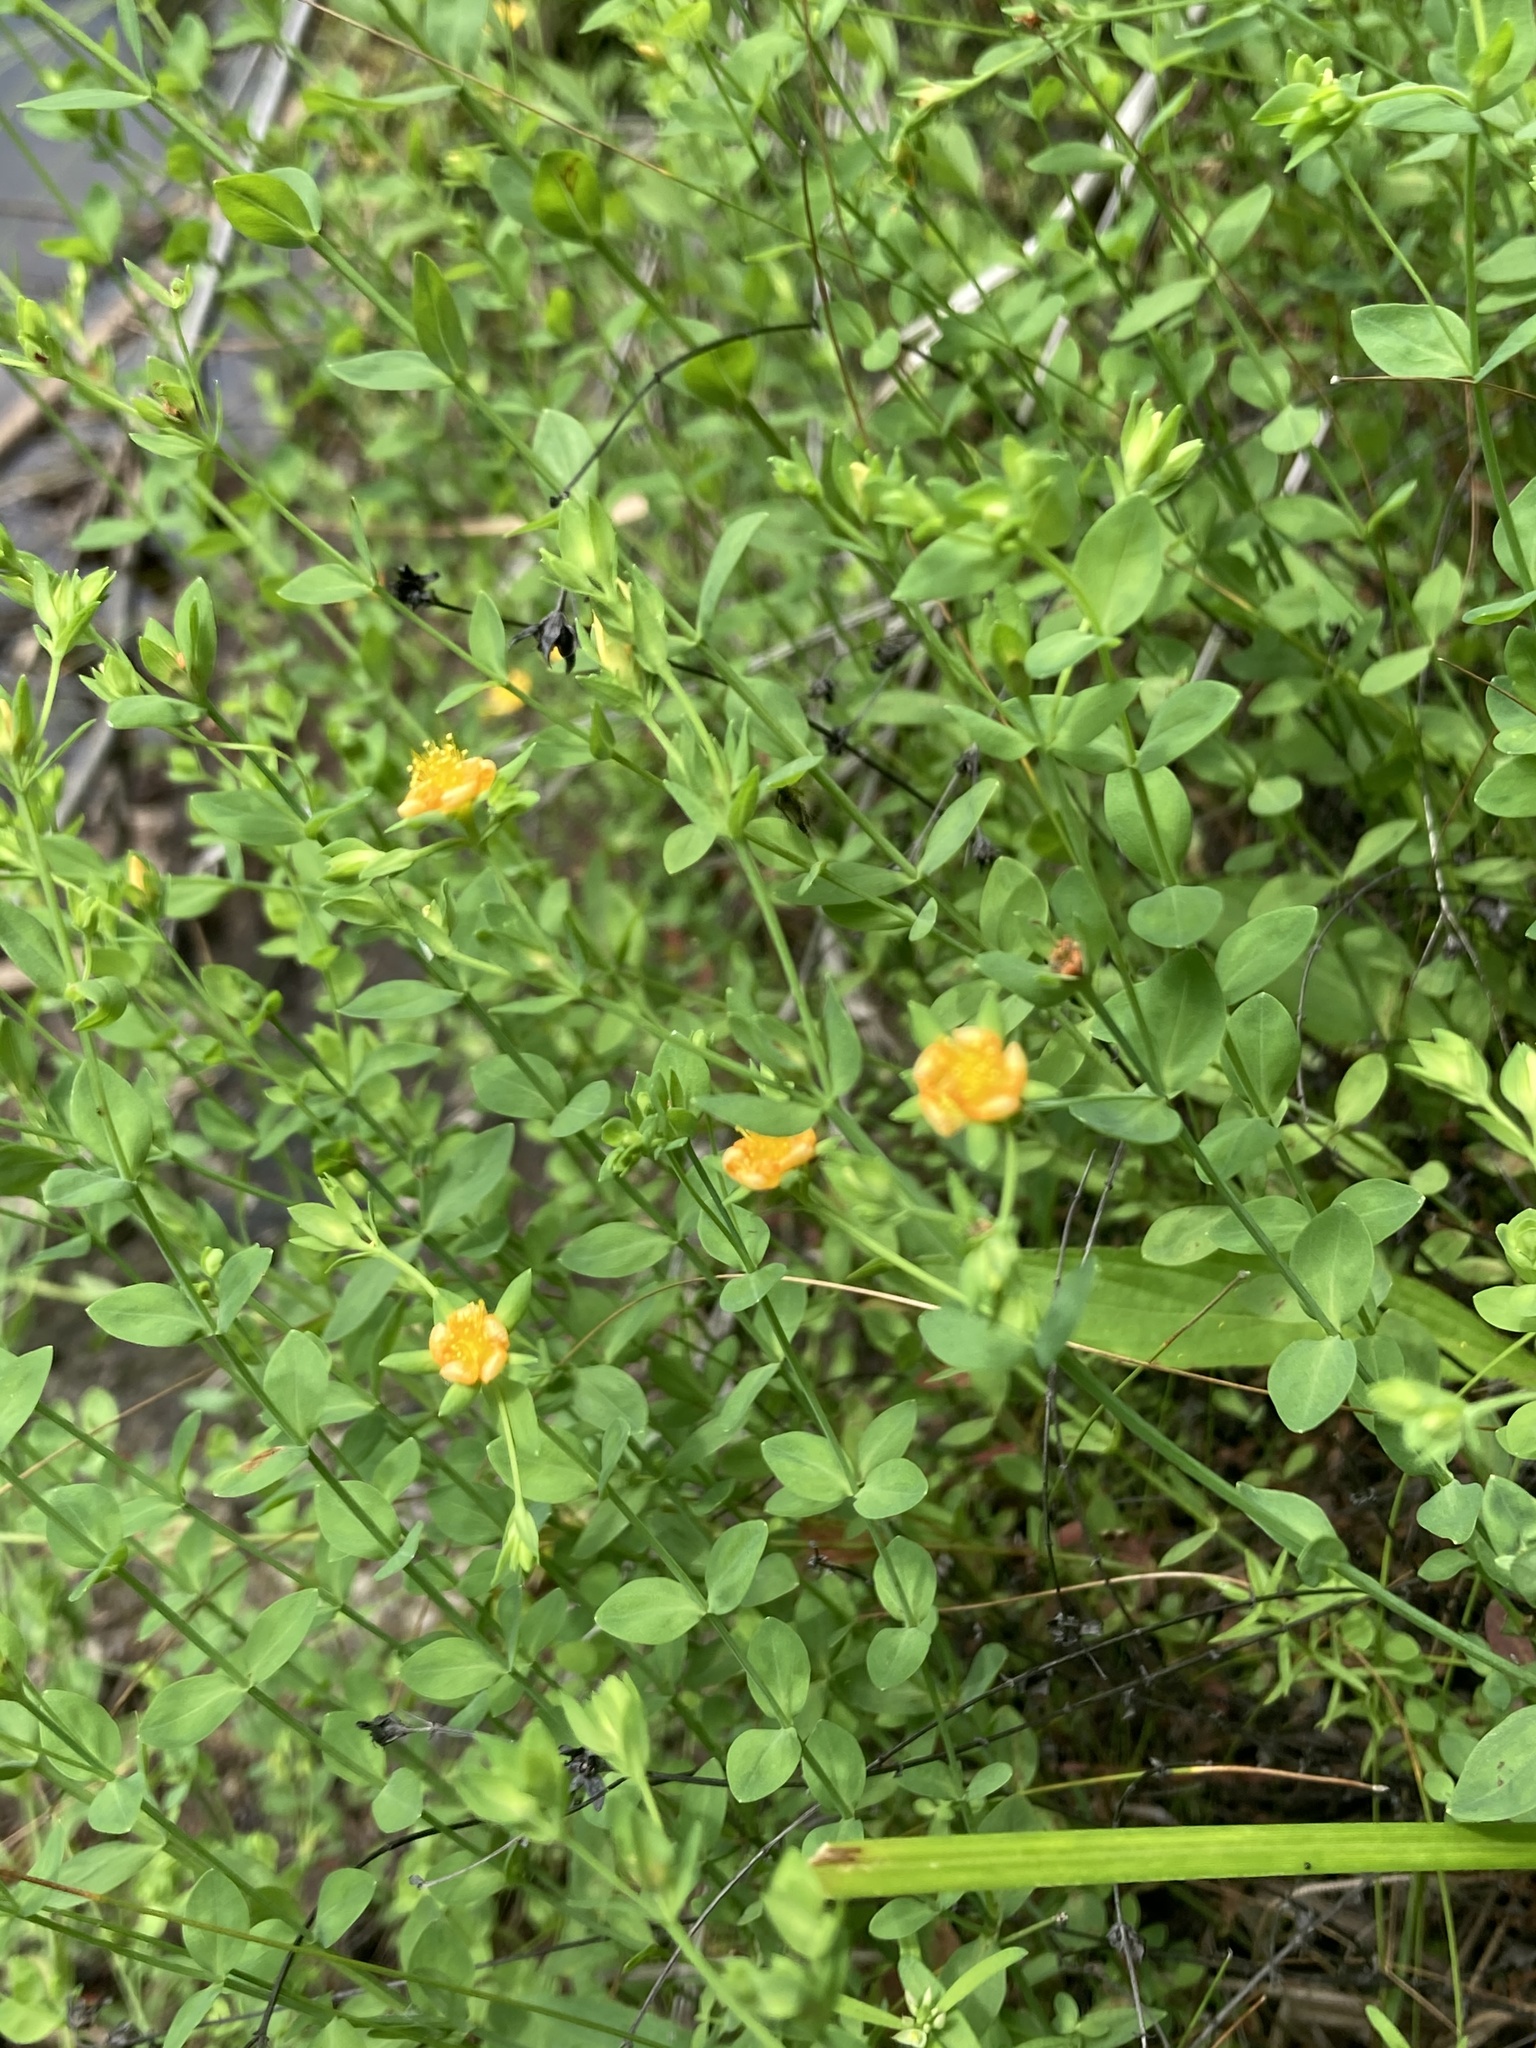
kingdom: Plantae
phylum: Tracheophyta
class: Magnoliopsida
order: Malpighiales
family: Hypericaceae
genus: Hypericum
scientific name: Hypericum denticulatum
